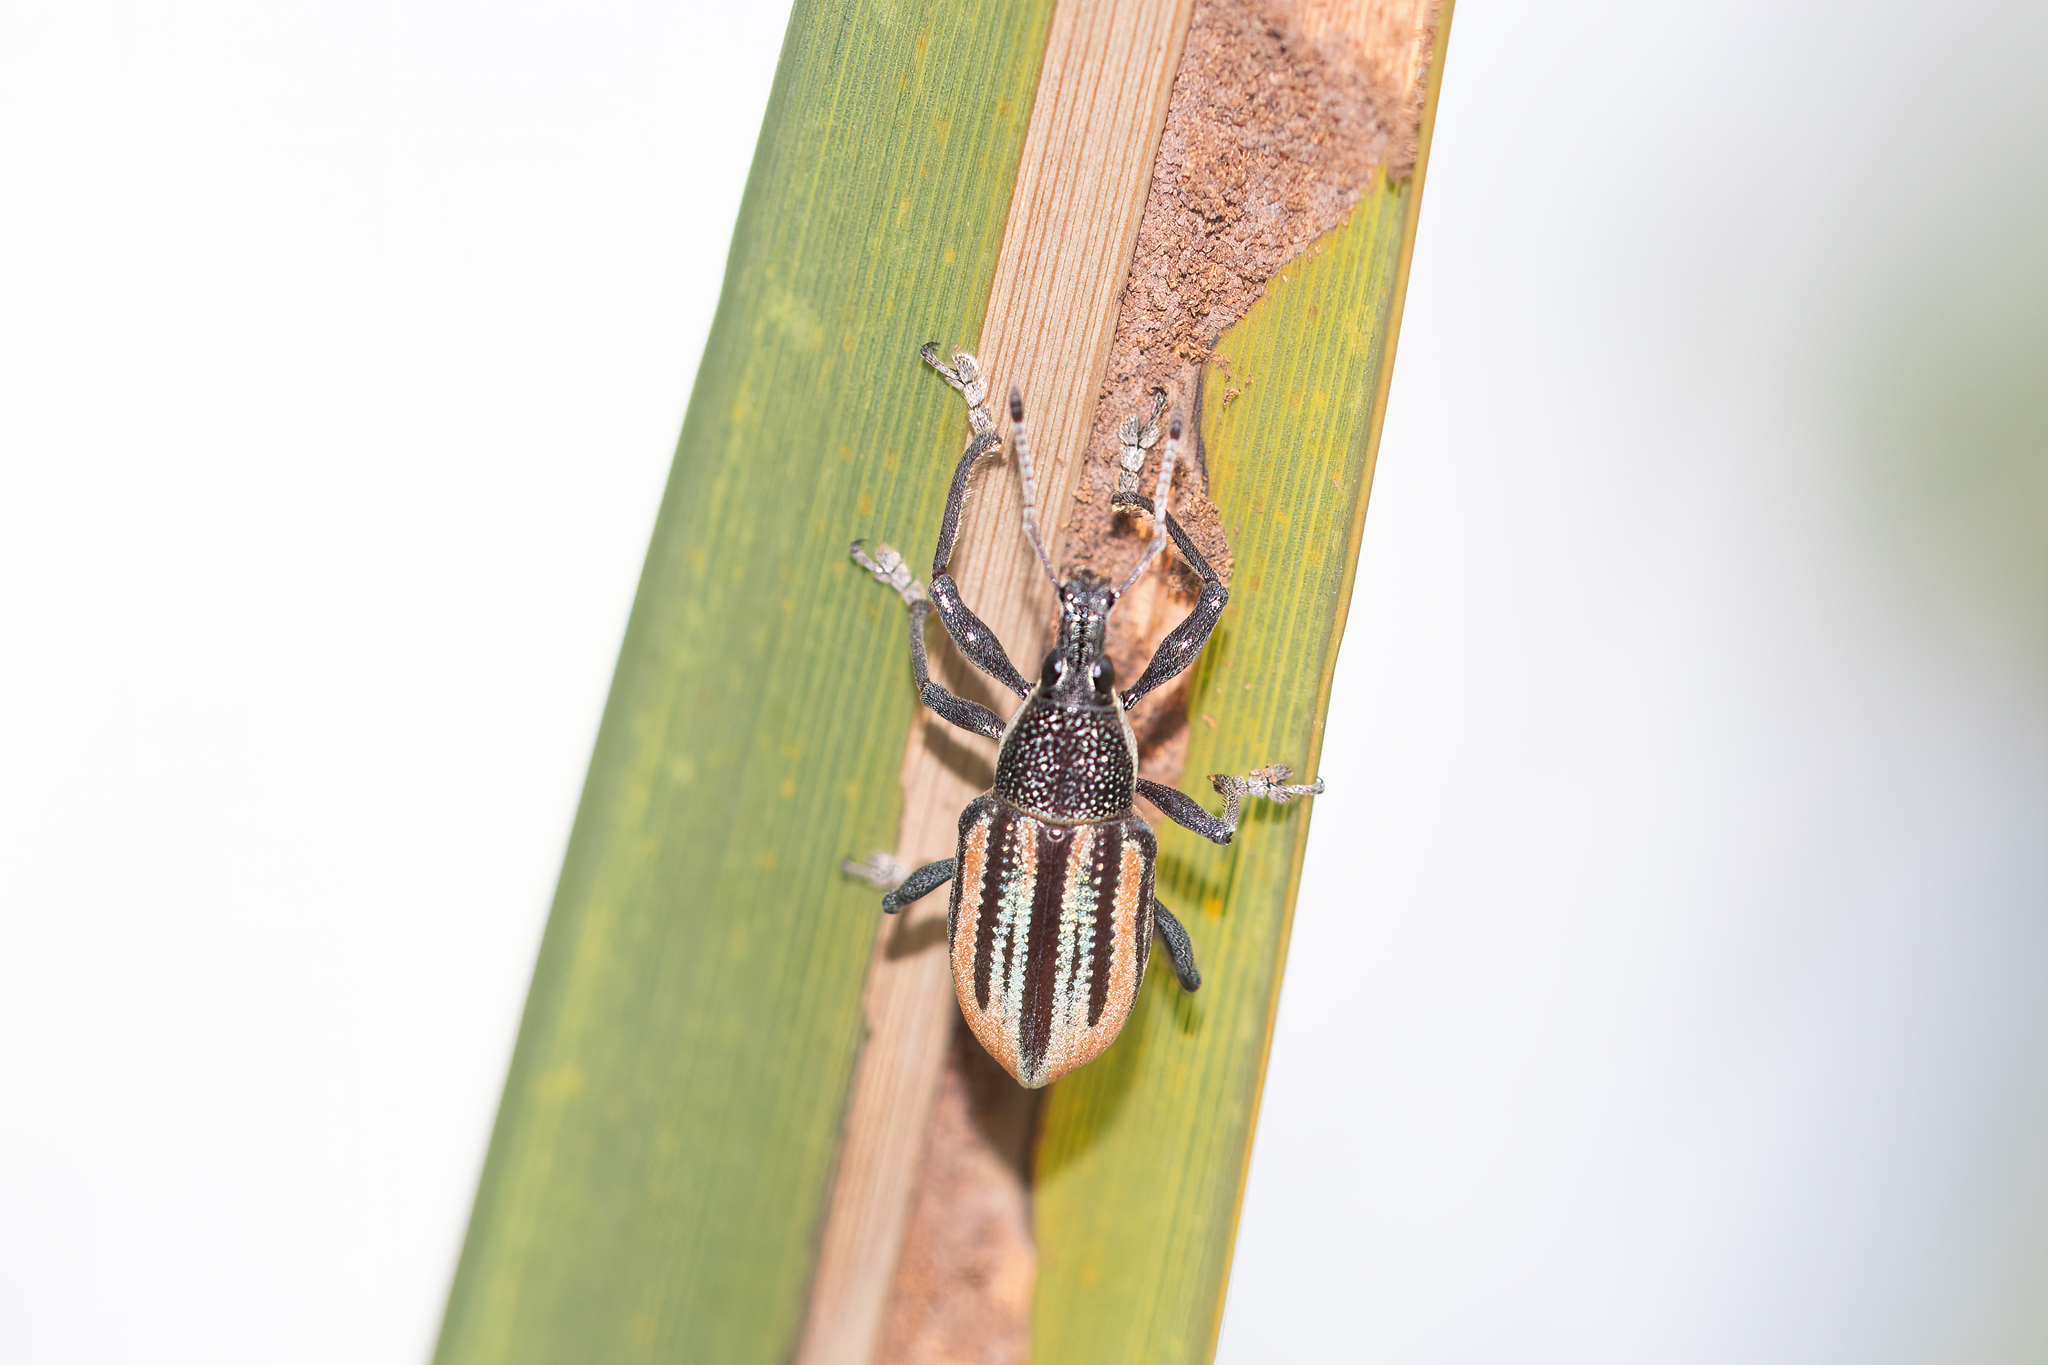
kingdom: Animalia
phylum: Arthropoda
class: Insecta
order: Coleoptera
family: Curculionidae
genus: Diaprepes
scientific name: Diaprepes abbreviatus
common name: Root weevil
